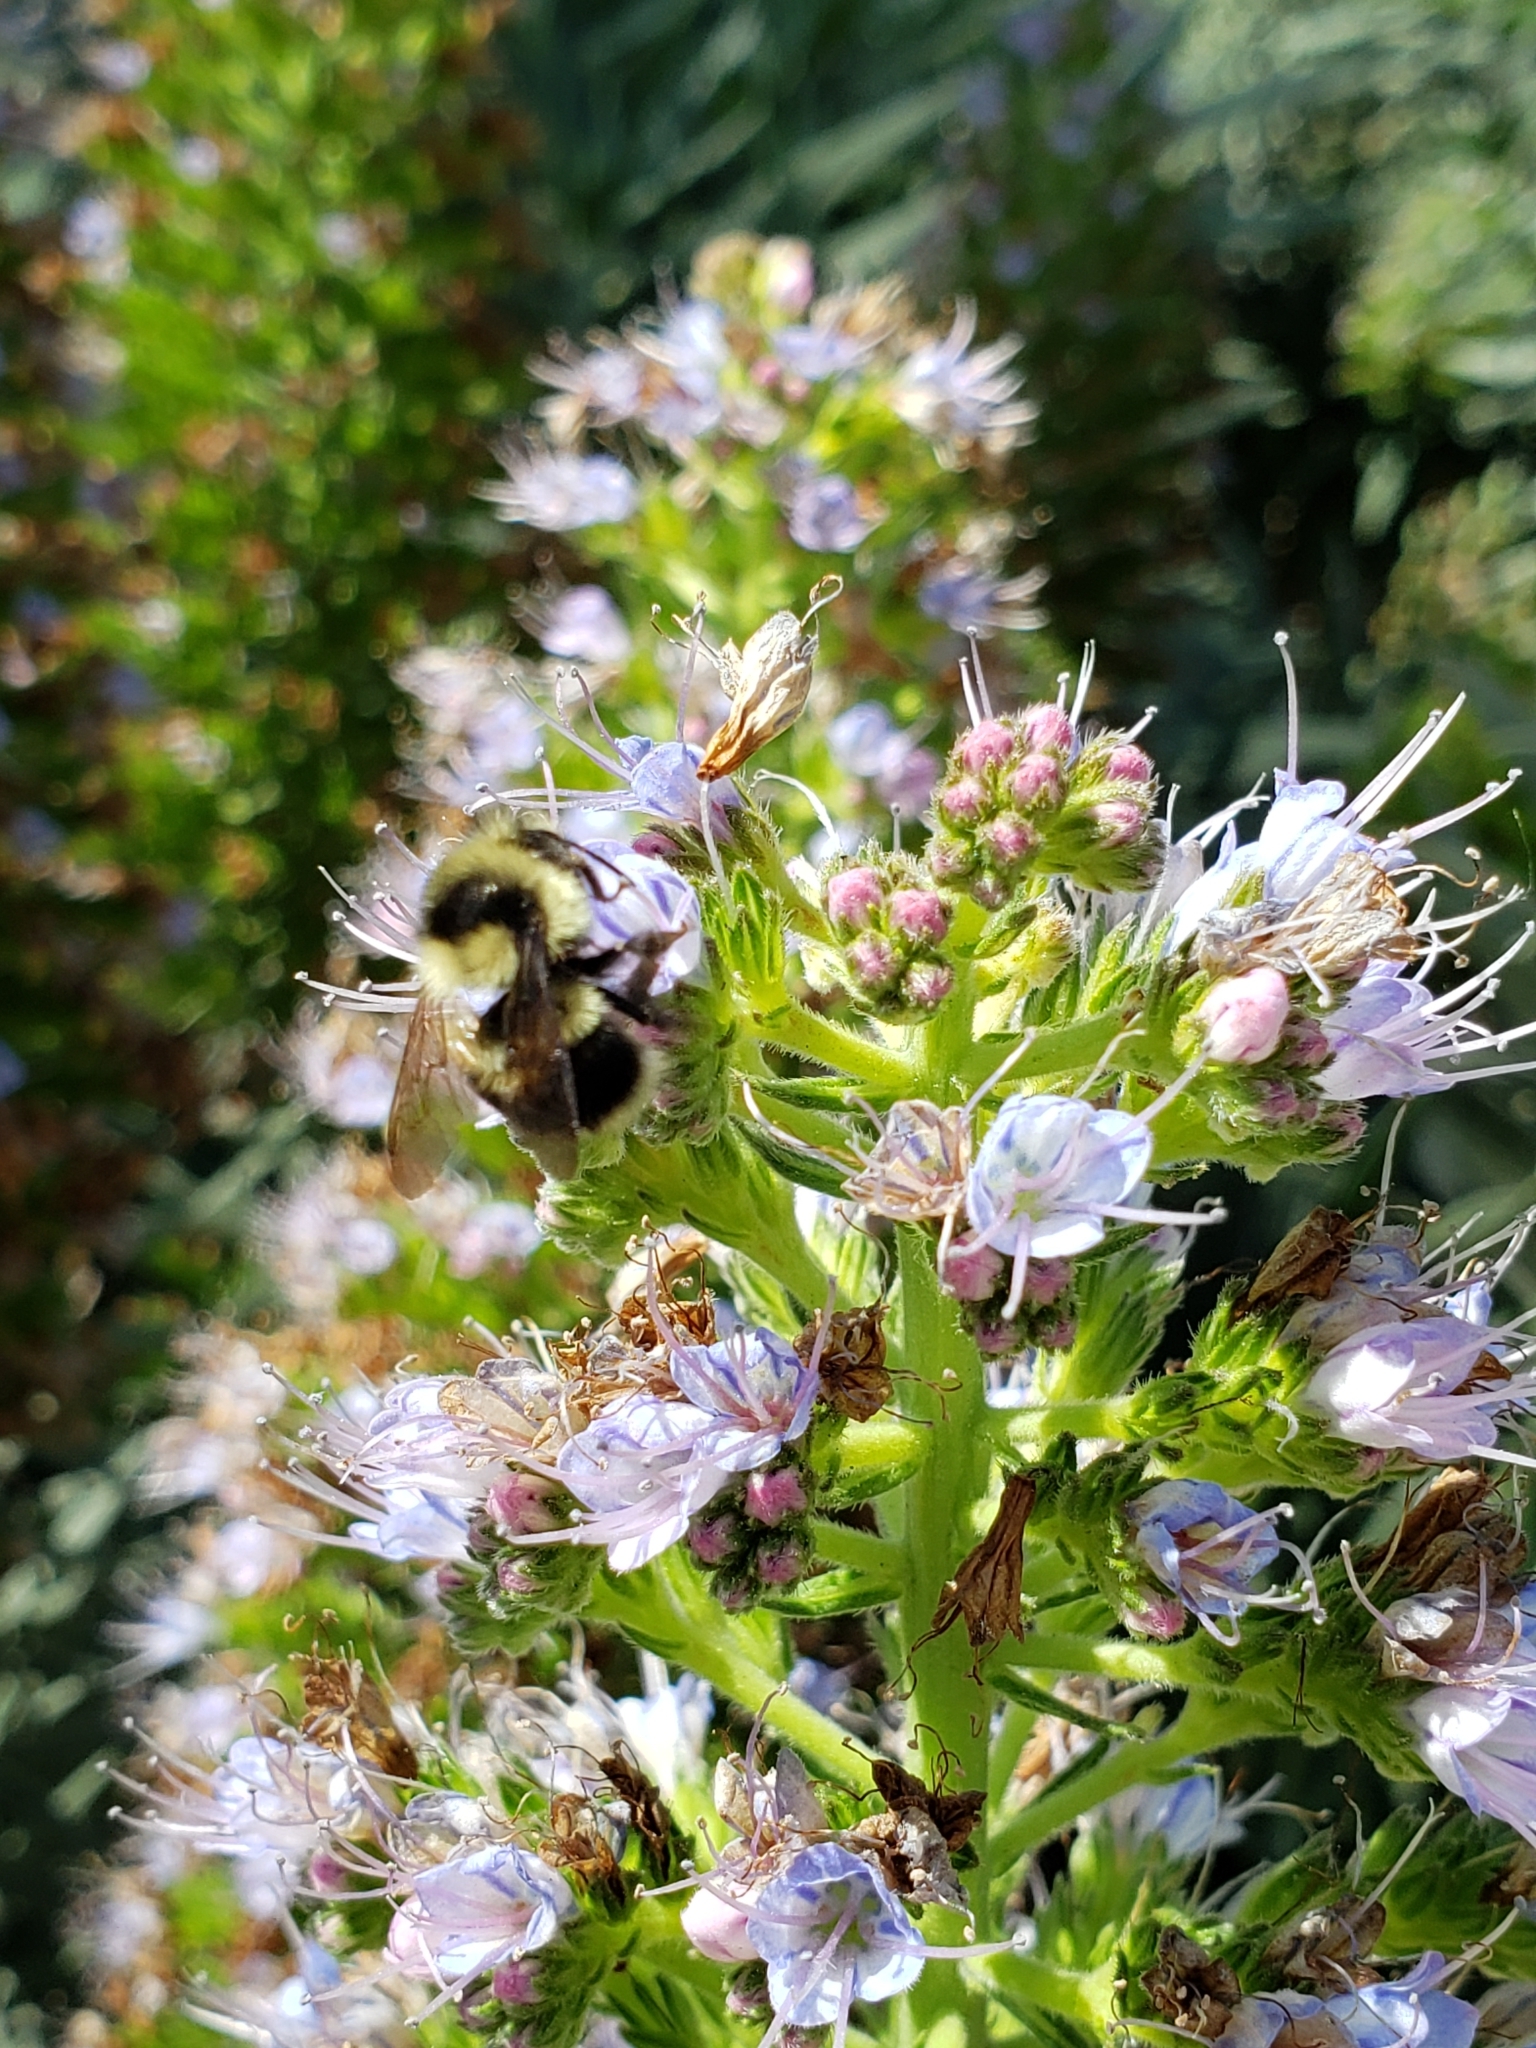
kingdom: Animalia
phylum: Arthropoda
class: Insecta
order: Hymenoptera
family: Apidae
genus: Bombus
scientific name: Bombus melanopygus
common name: Black tail bumble bee
